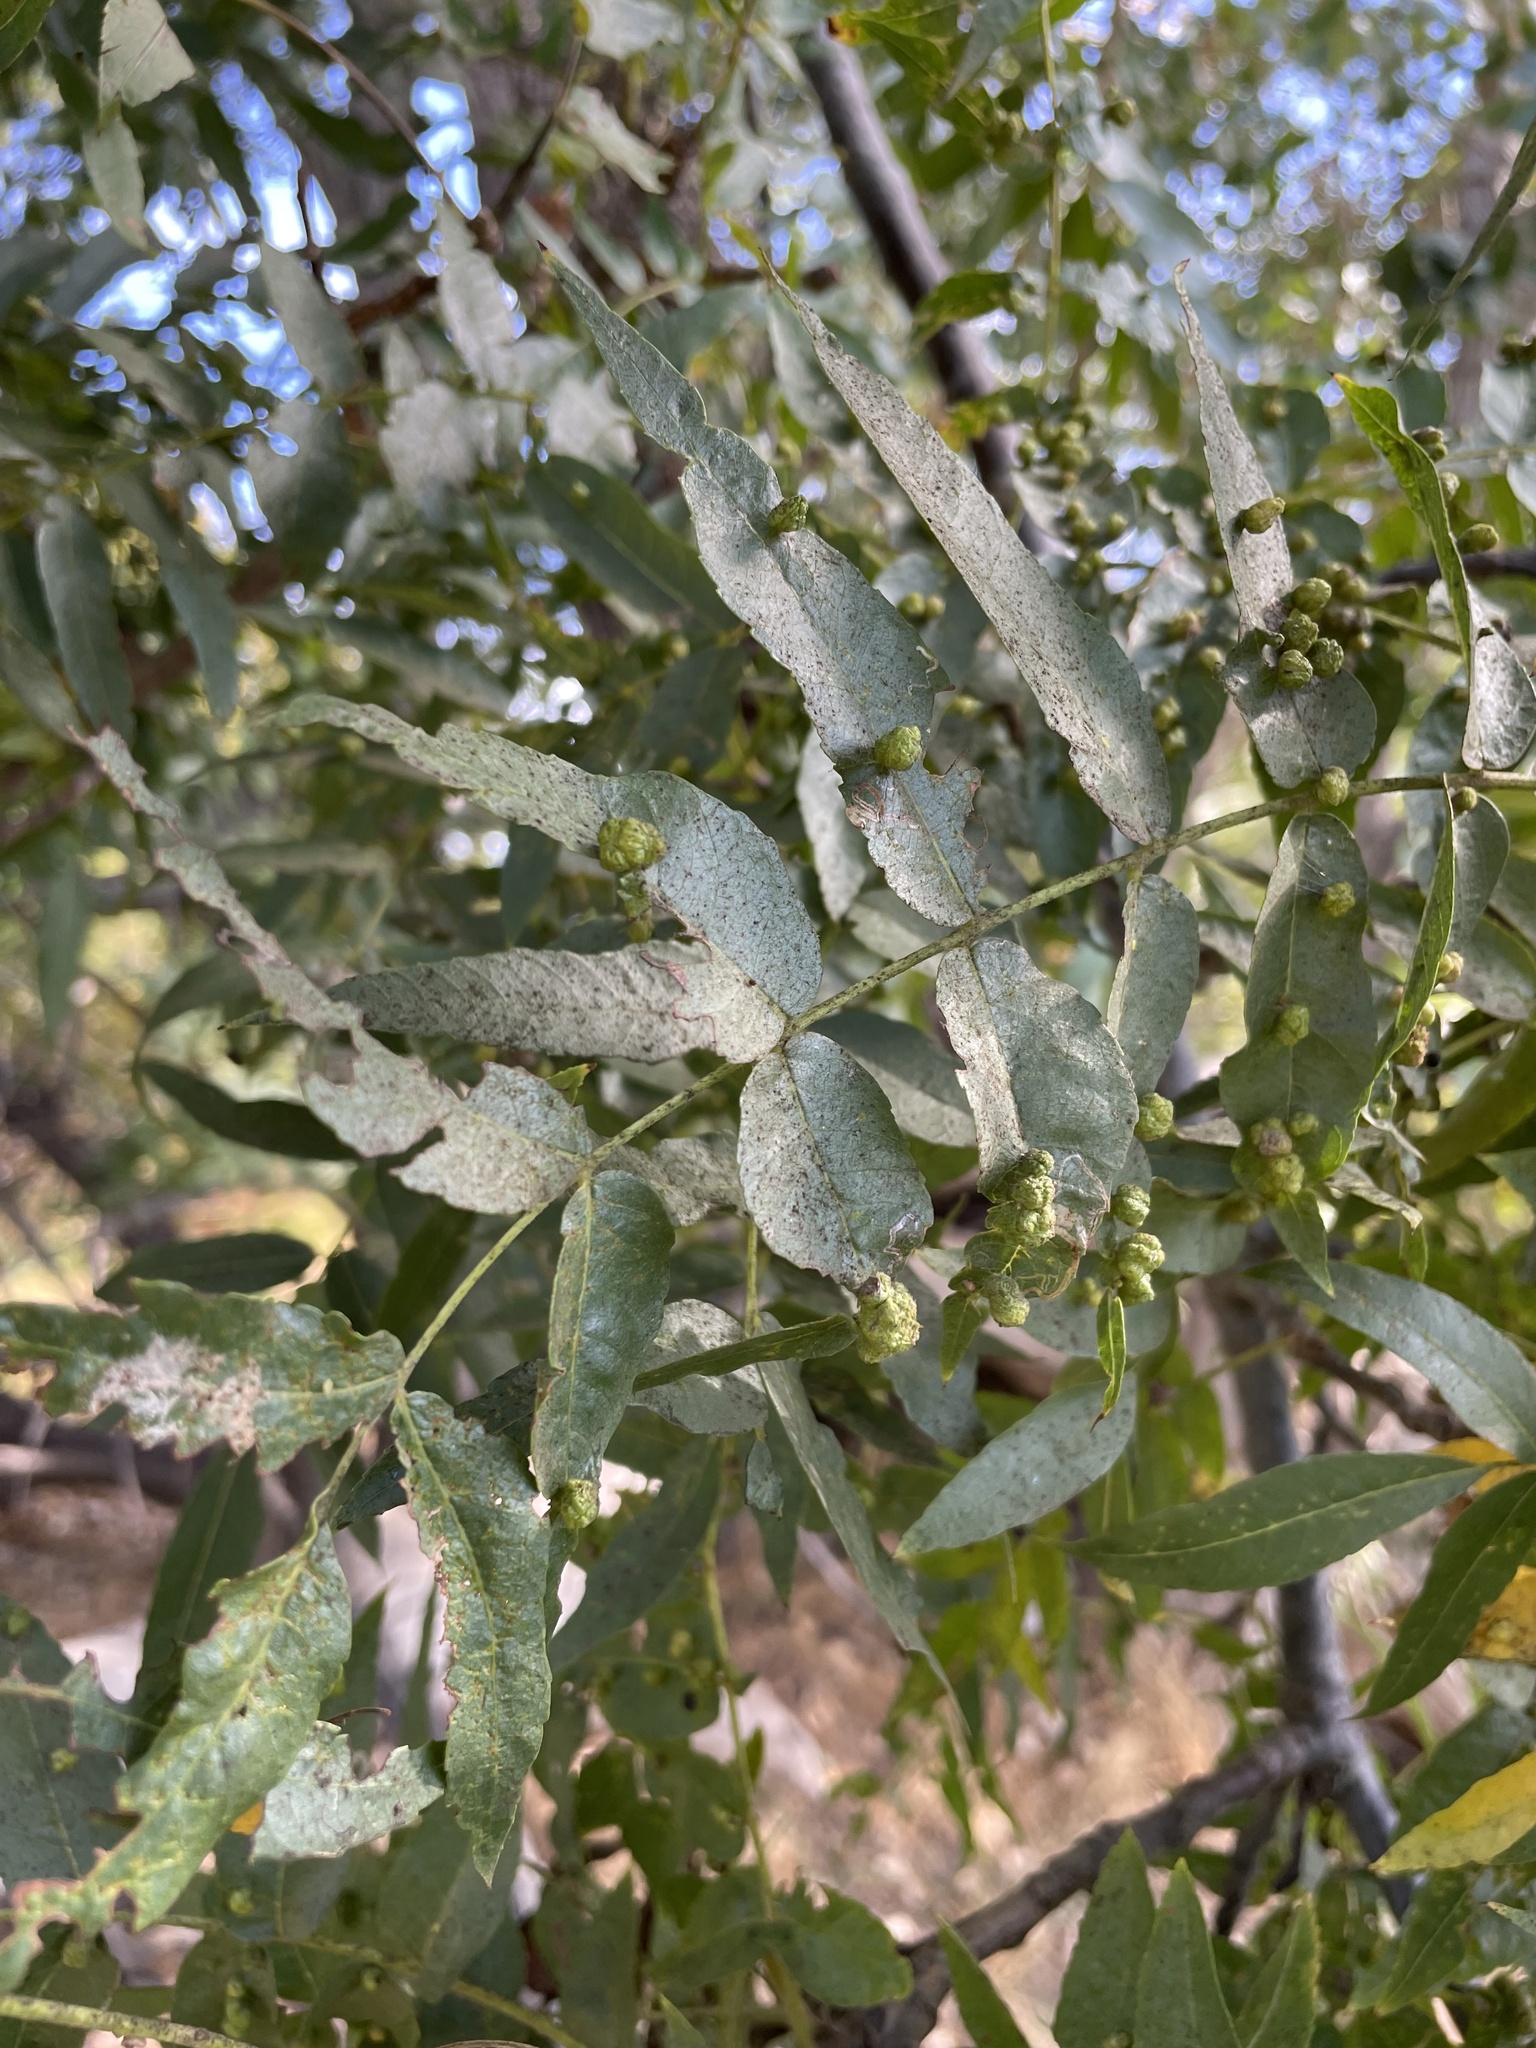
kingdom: Animalia
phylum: Arthropoda
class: Arachnida
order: Trombidiformes
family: Eriophyidae
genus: Aceria
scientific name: Aceria brachytarsus
